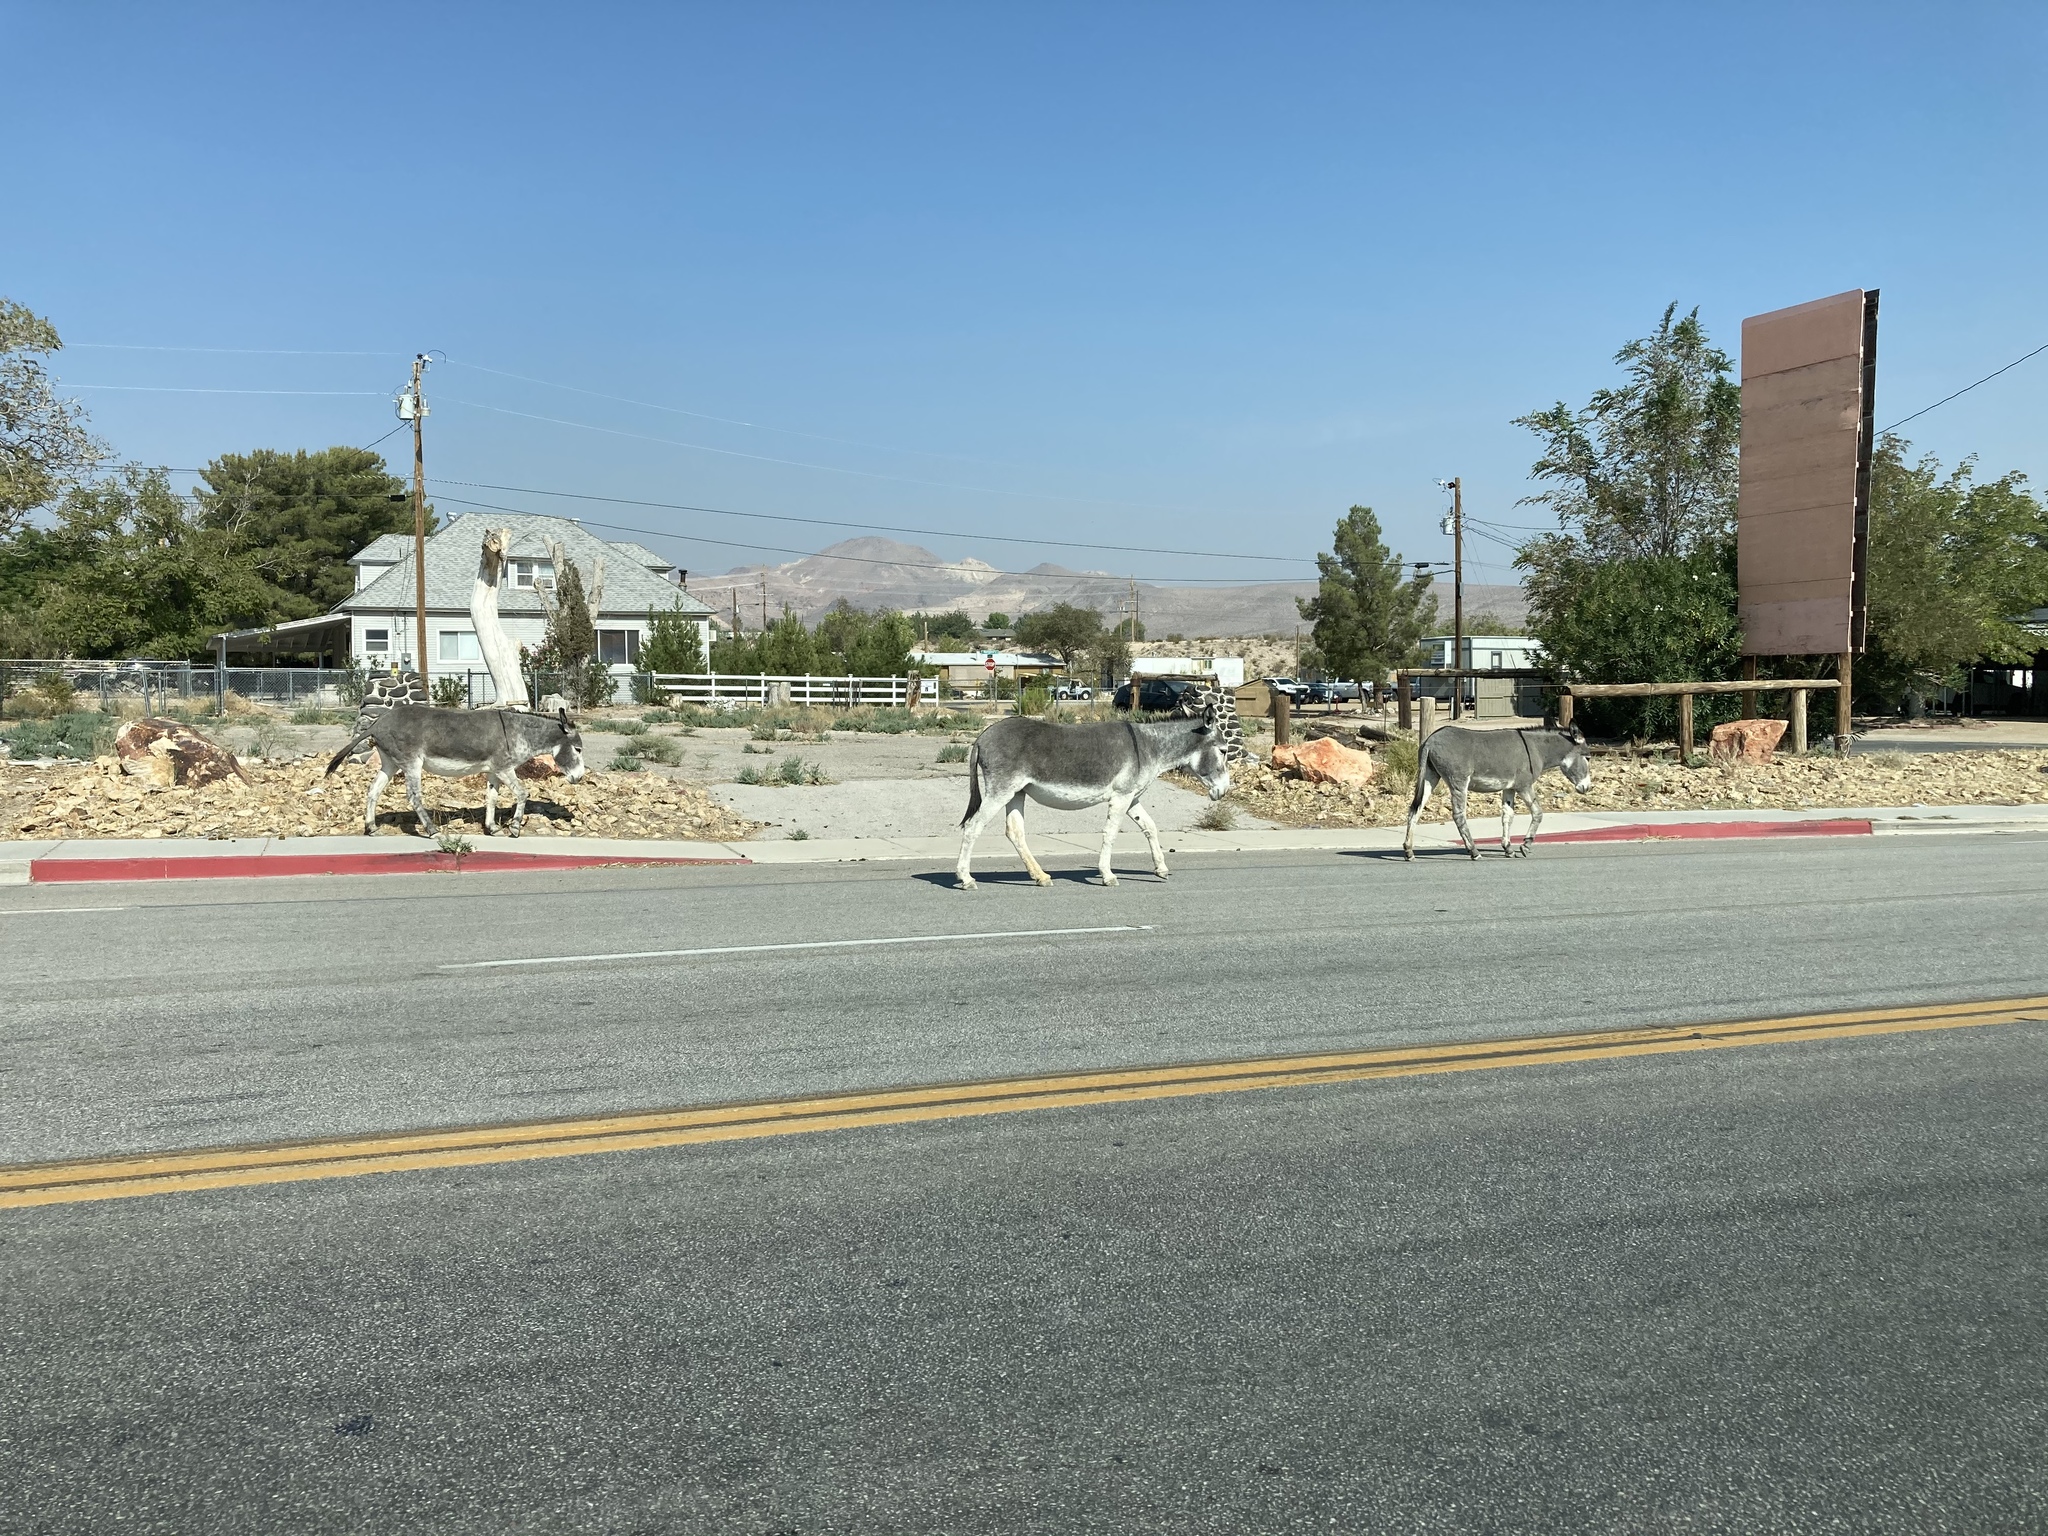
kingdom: Animalia
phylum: Chordata
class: Mammalia
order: Perissodactyla
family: Equidae
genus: Equus
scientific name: Equus asinus
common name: Ass
